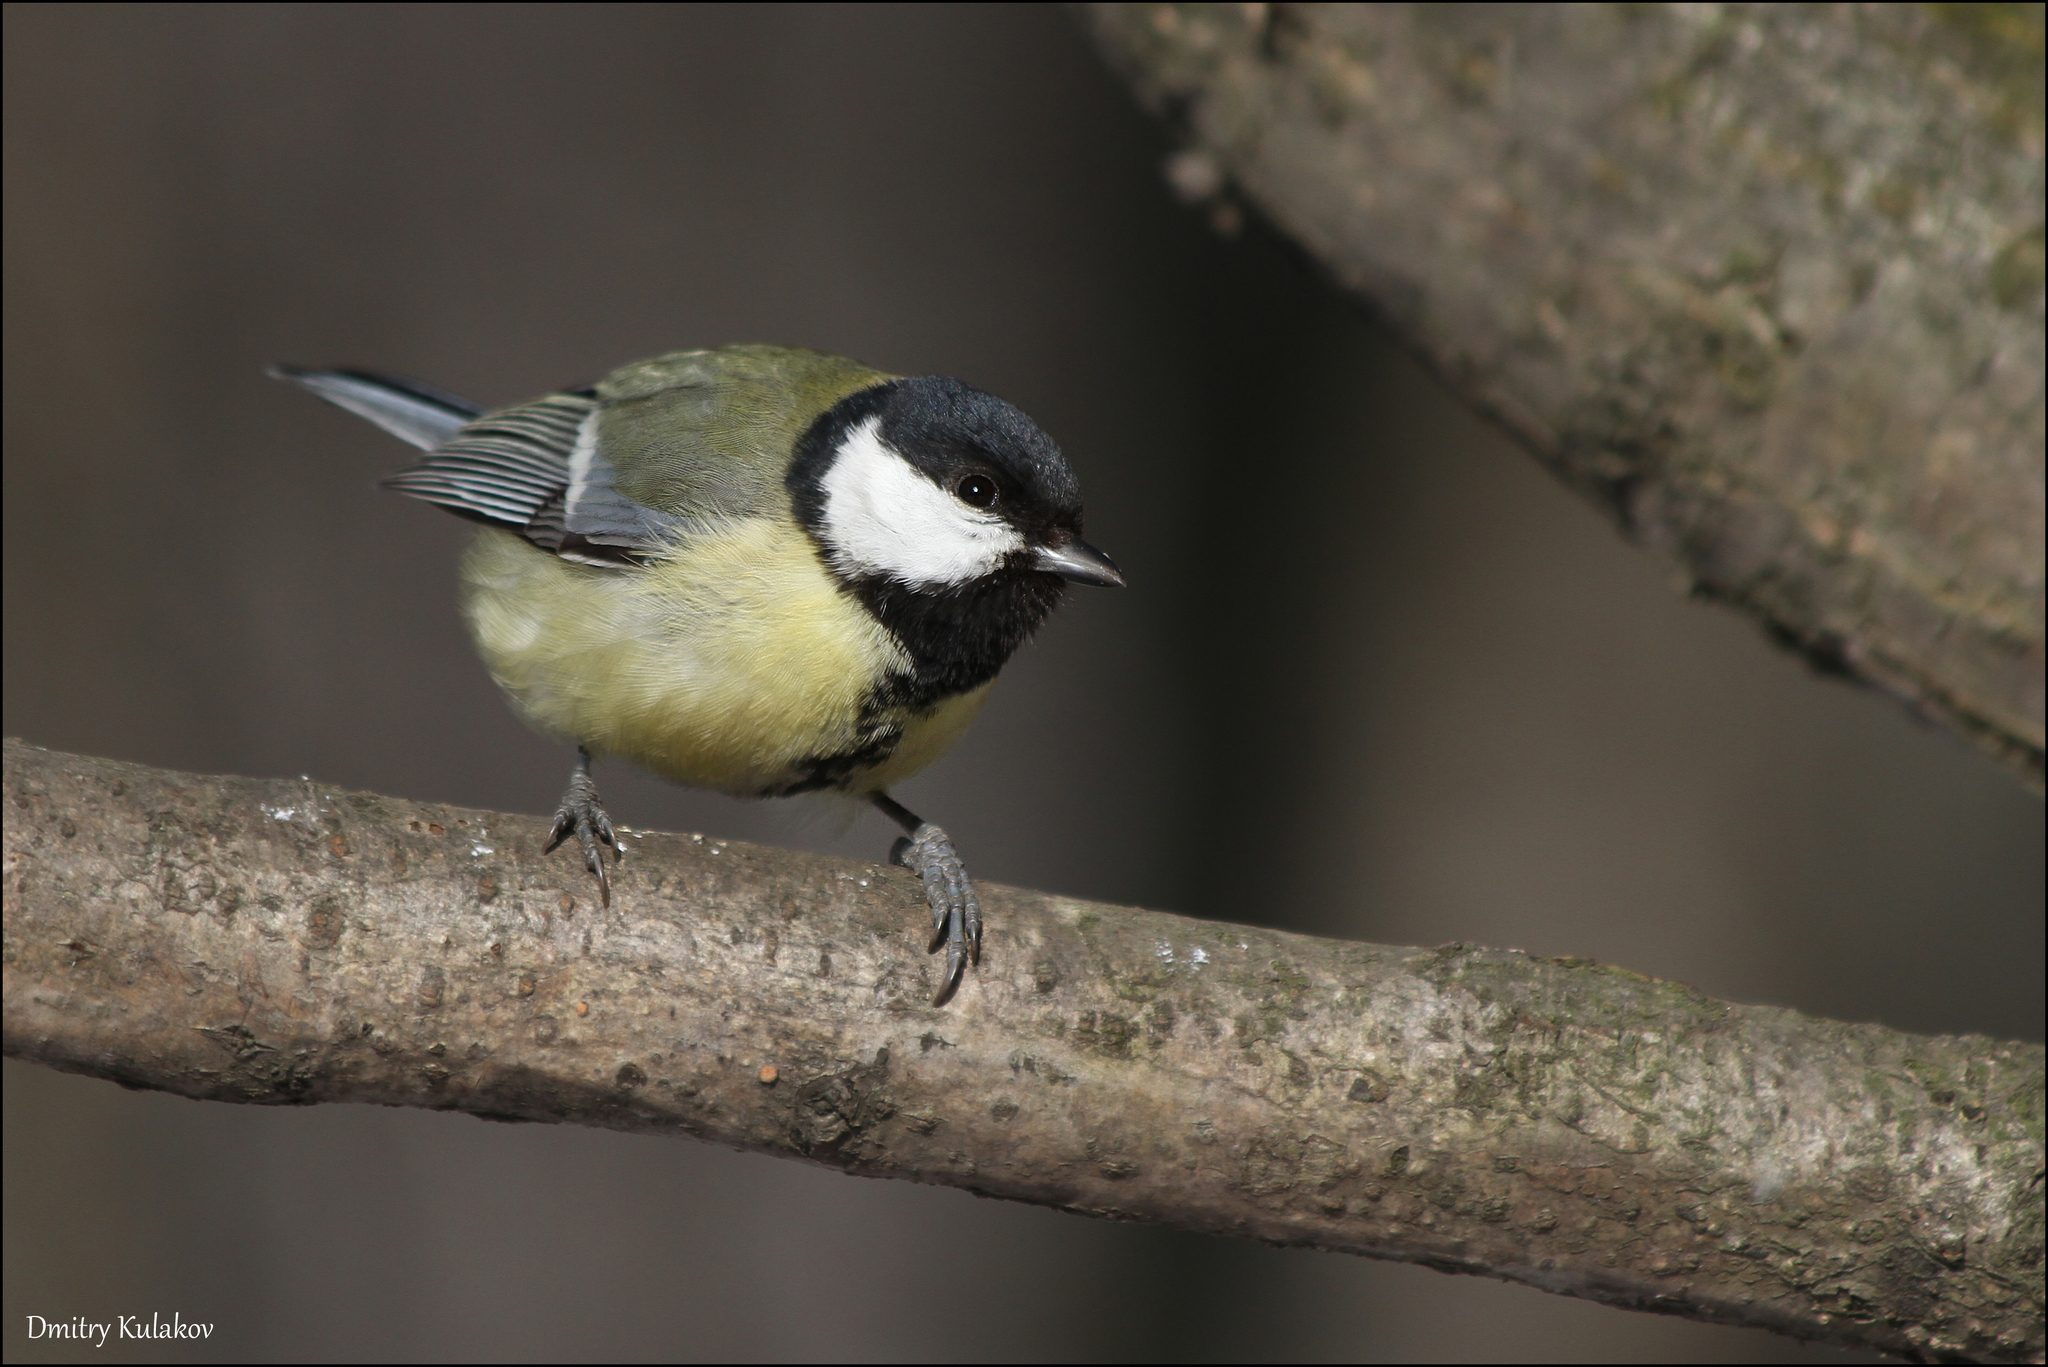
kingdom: Animalia
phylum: Chordata
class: Aves
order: Passeriformes
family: Paridae
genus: Parus
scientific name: Parus major
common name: Great tit
